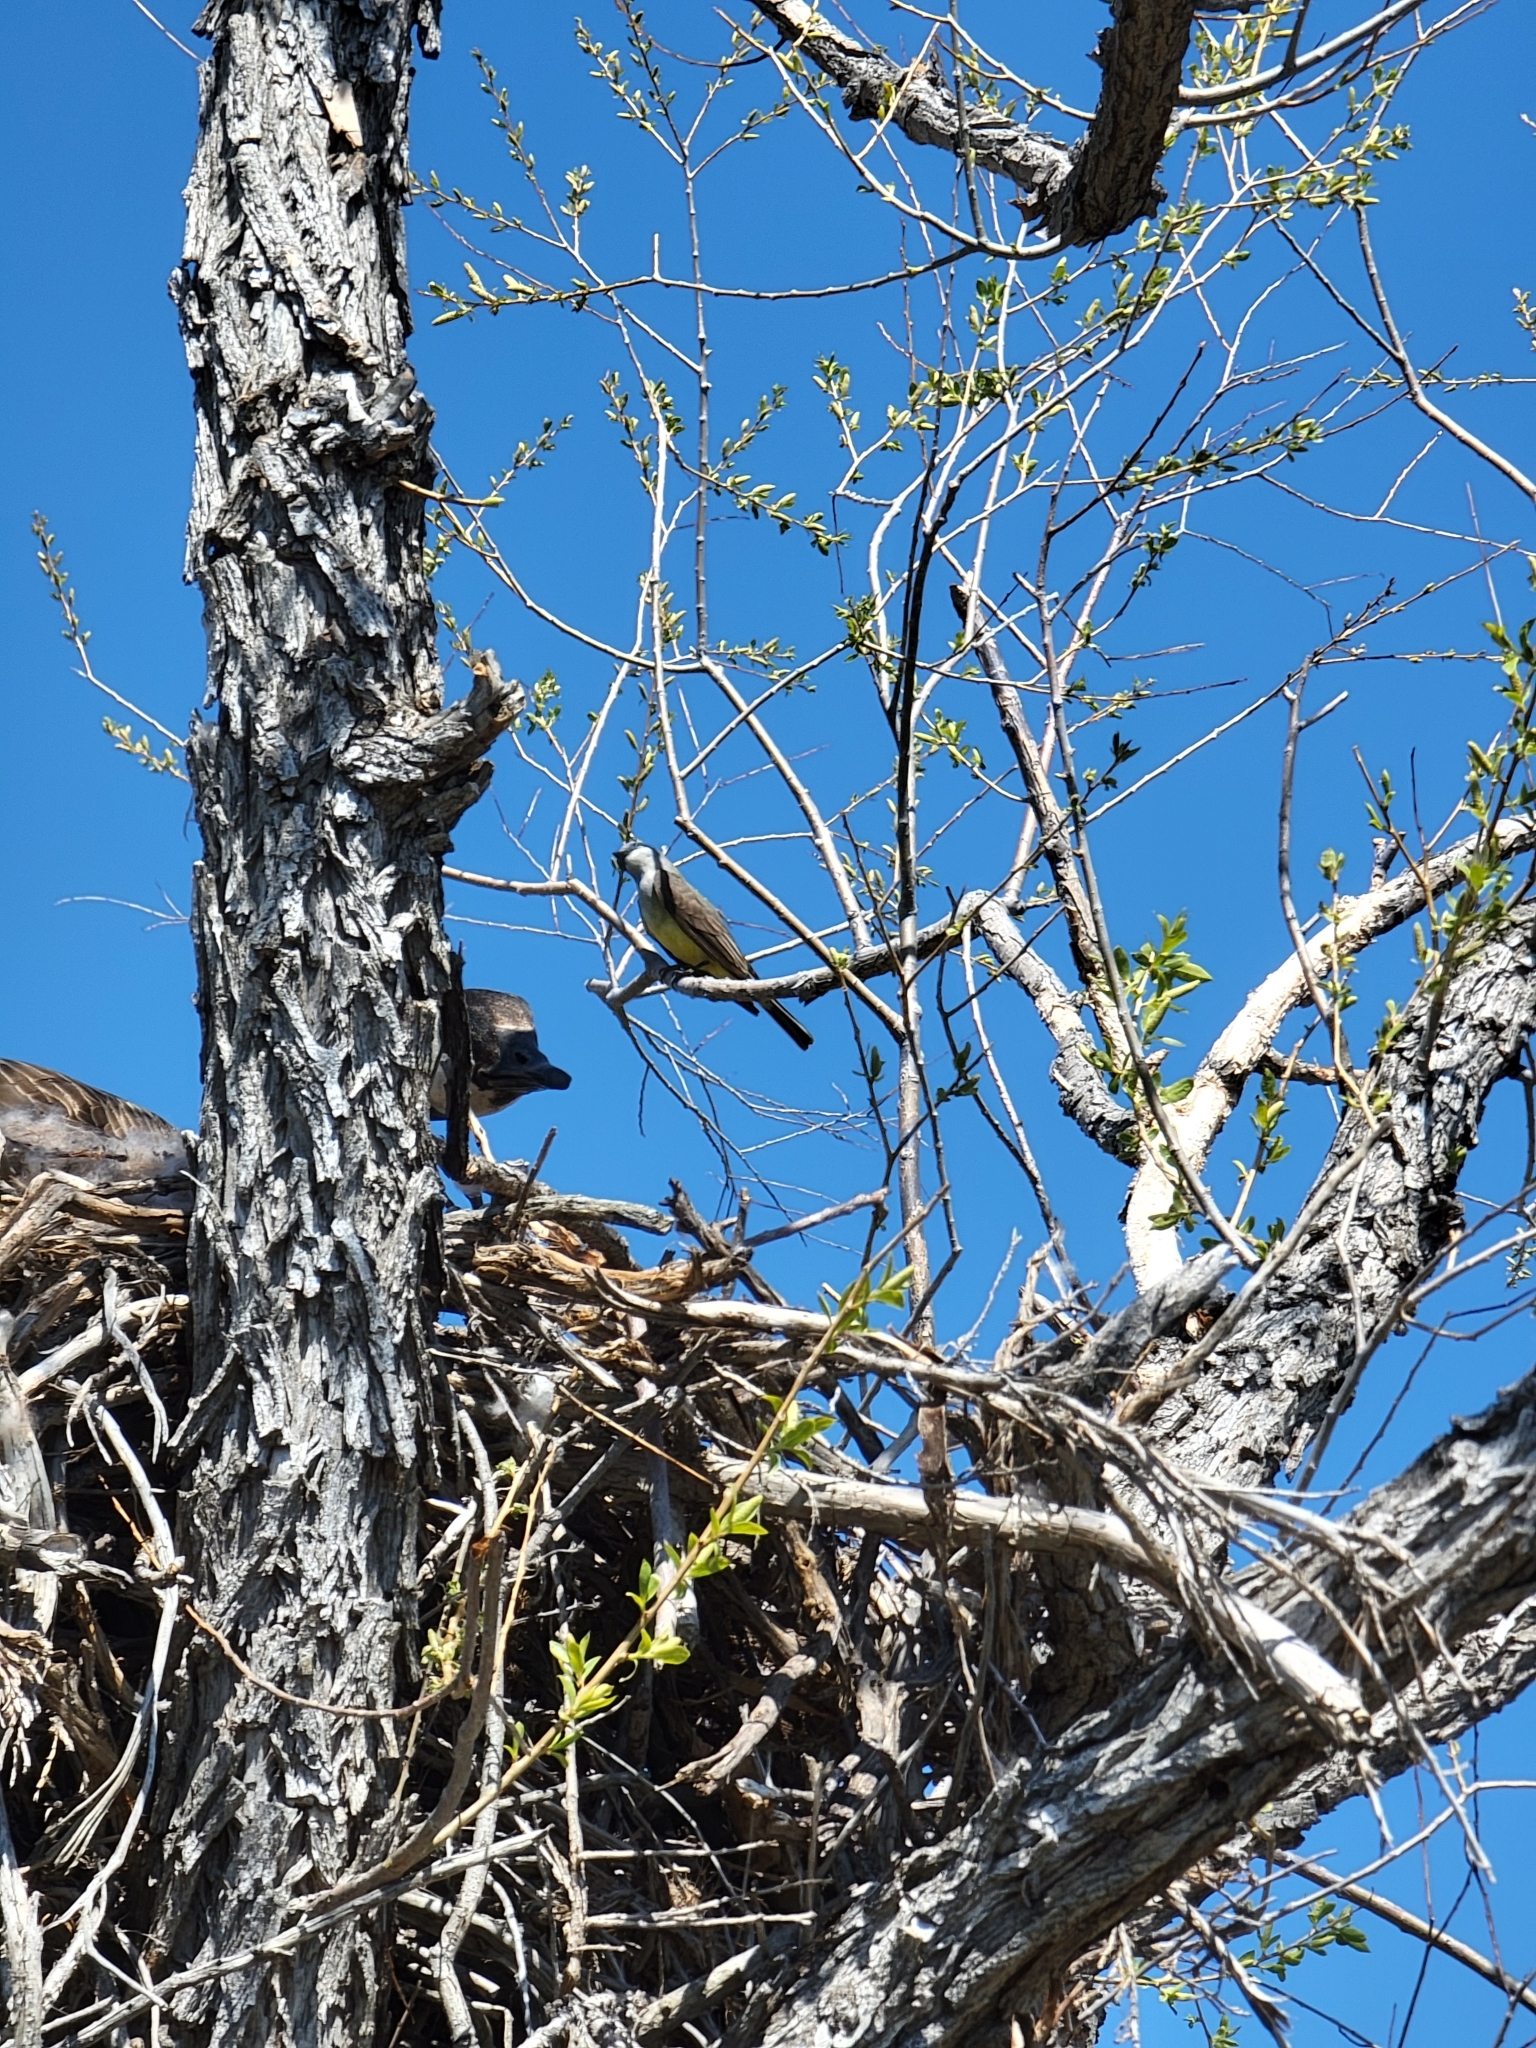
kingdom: Animalia
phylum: Chordata
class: Aves
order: Passeriformes
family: Tyrannidae
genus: Tyrannus
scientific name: Tyrannus verticalis
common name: Western kingbird
